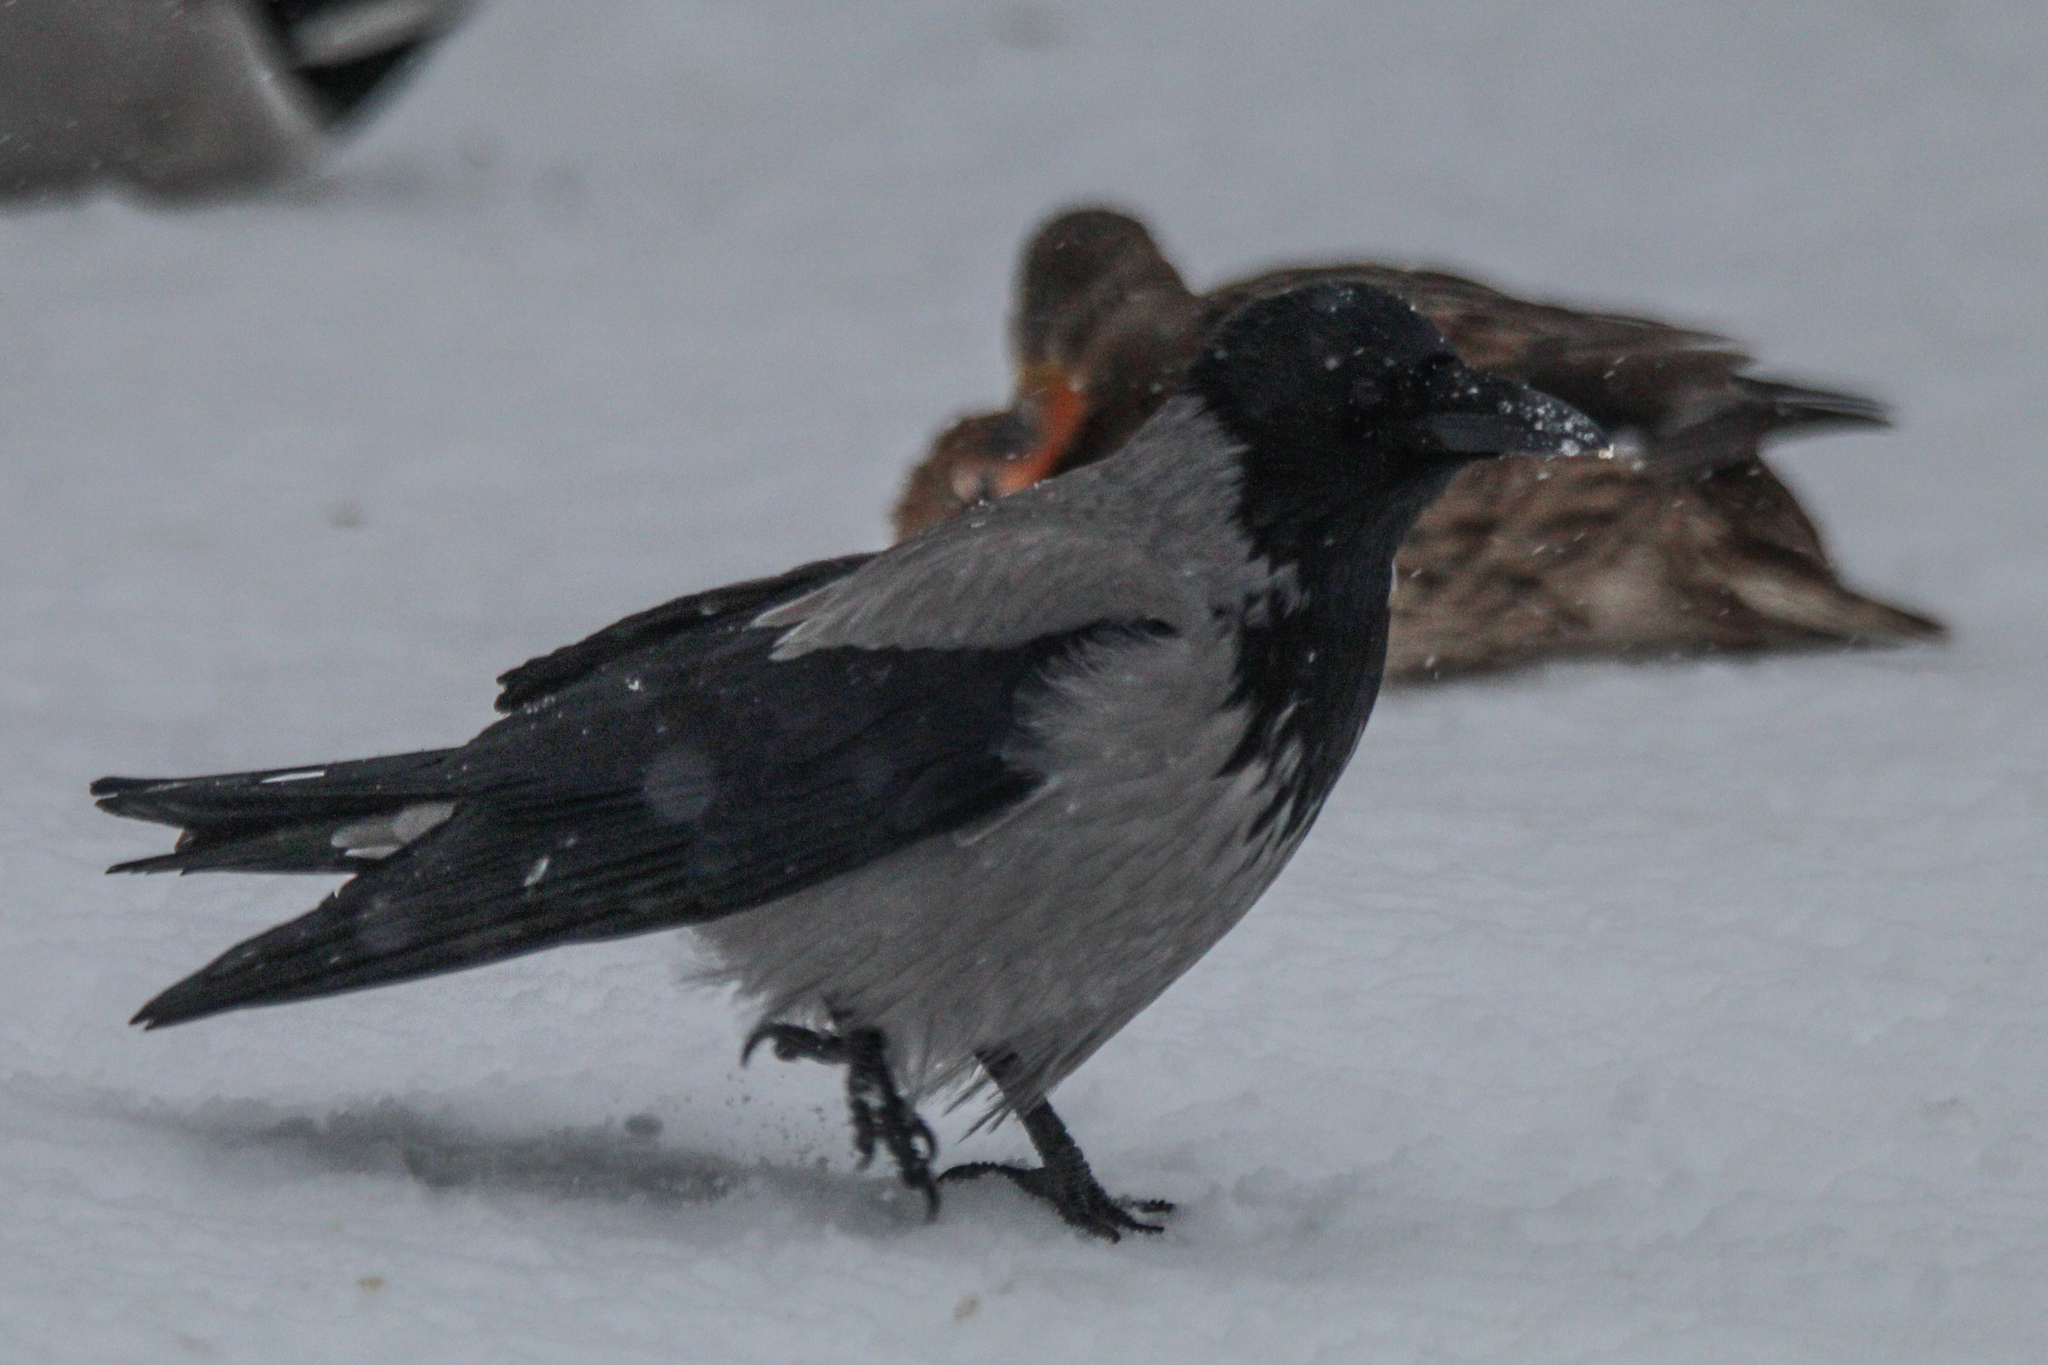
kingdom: Animalia
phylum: Chordata
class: Aves
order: Passeriformes
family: Corvidae
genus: Corvus
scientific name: Corvus cornix
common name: Hooded crow
